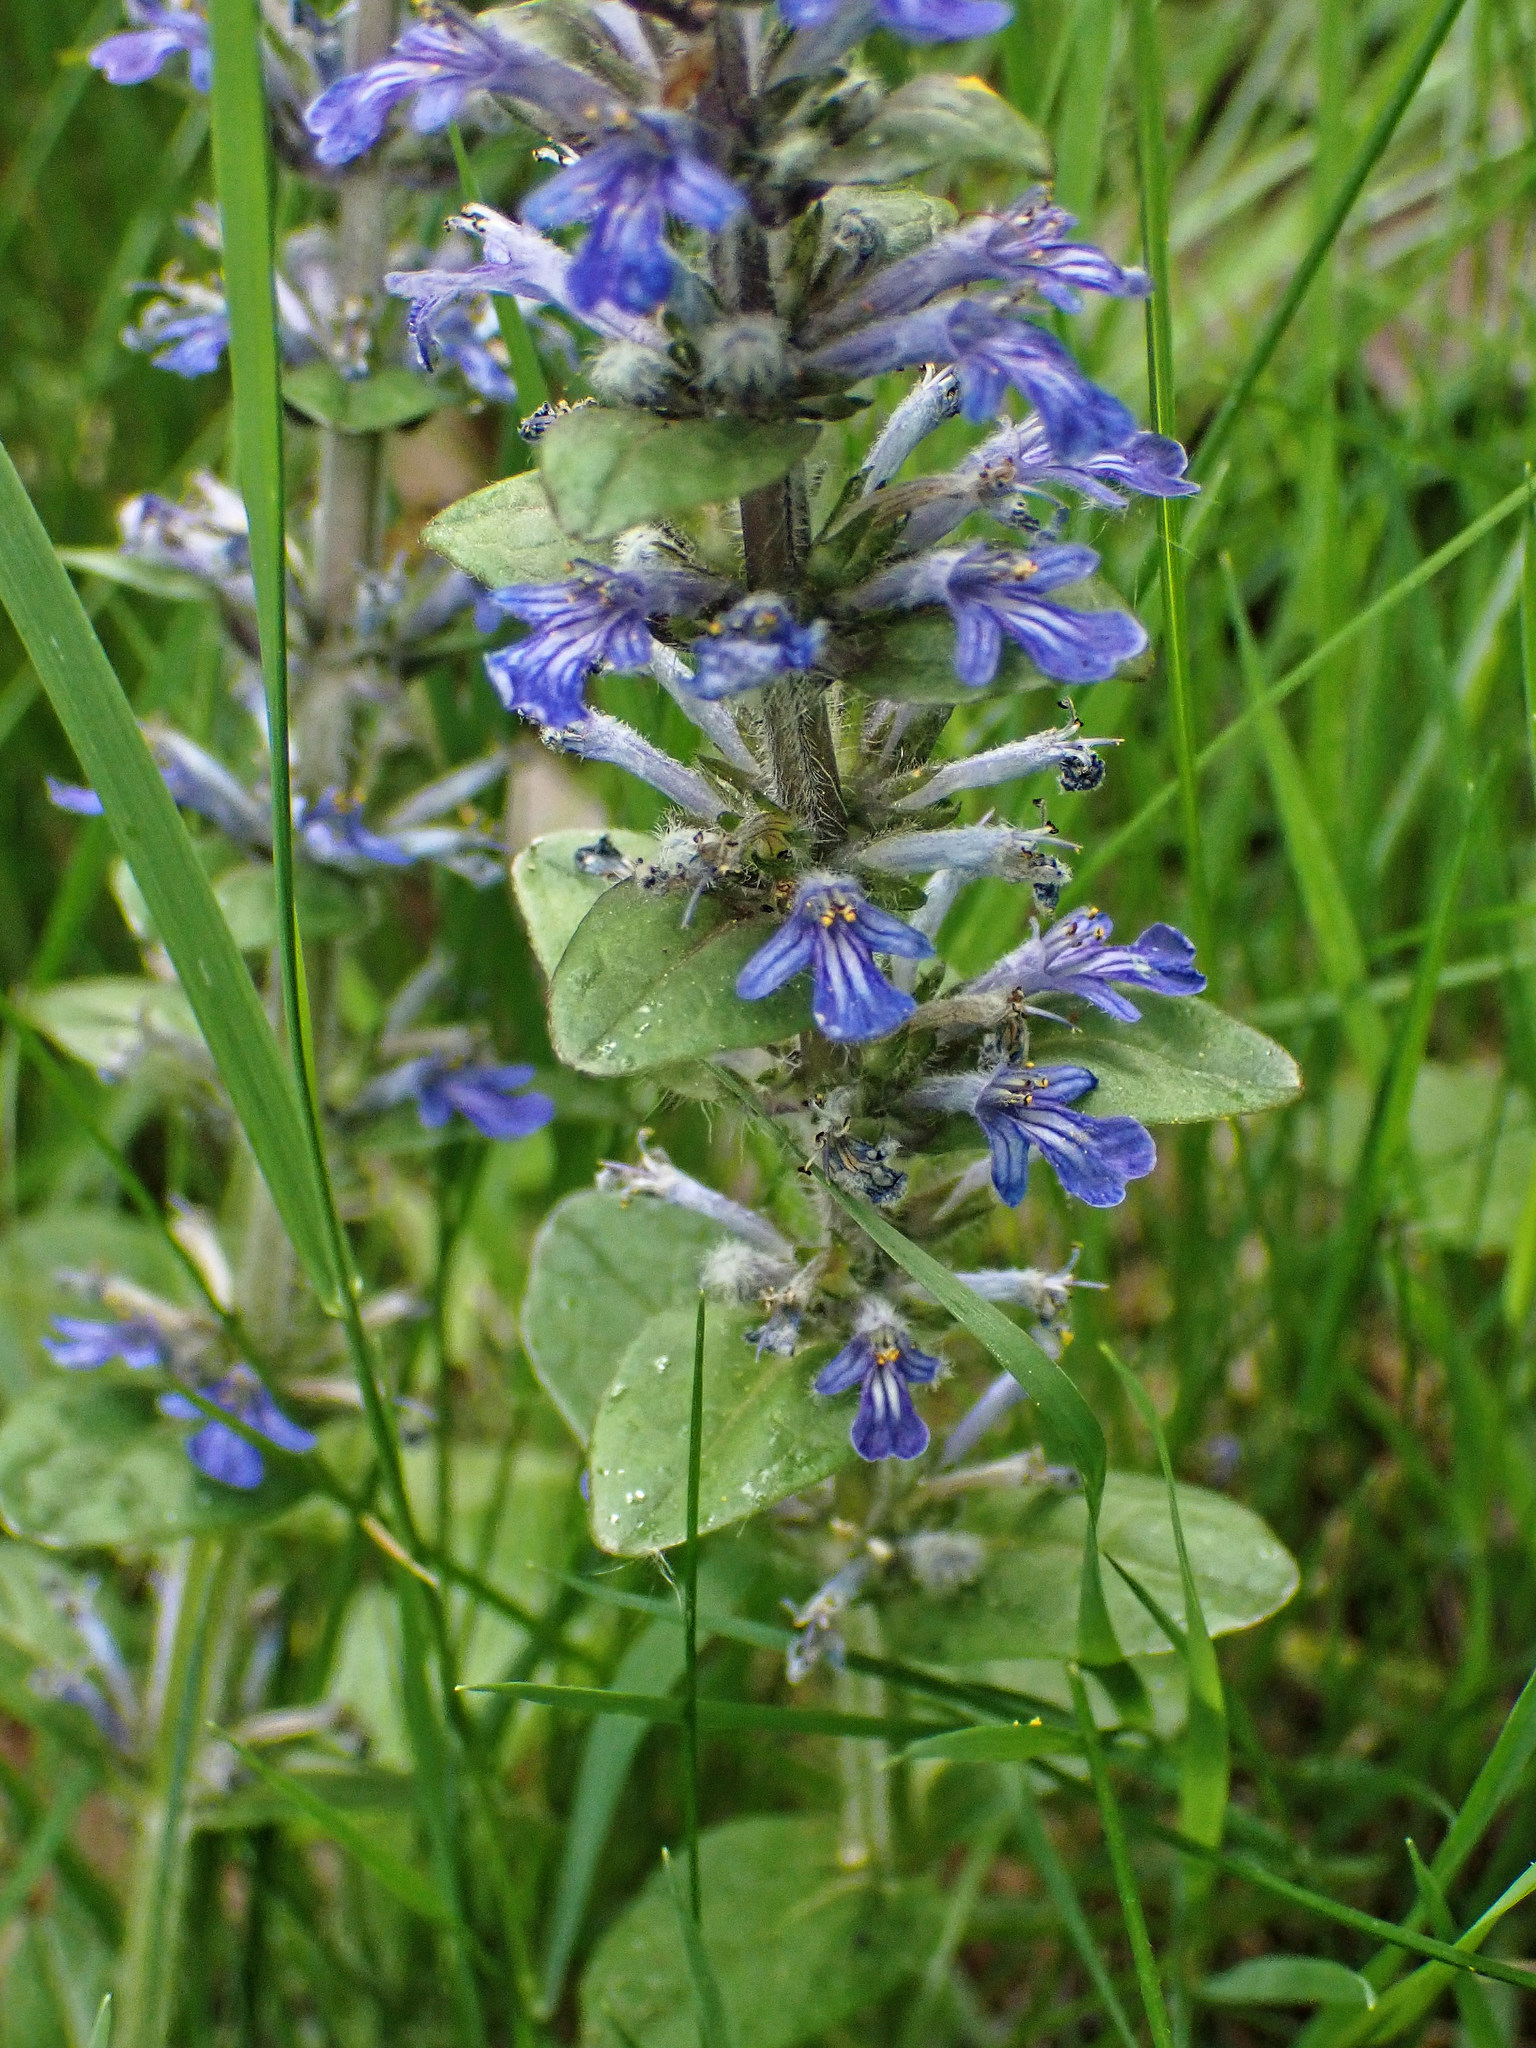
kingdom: Plantae
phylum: Tracheophyta
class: Magnoliopsida
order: Lamiales
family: Lamiaceae
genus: Ajuga
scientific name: Ajuga reptans
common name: Bugle
